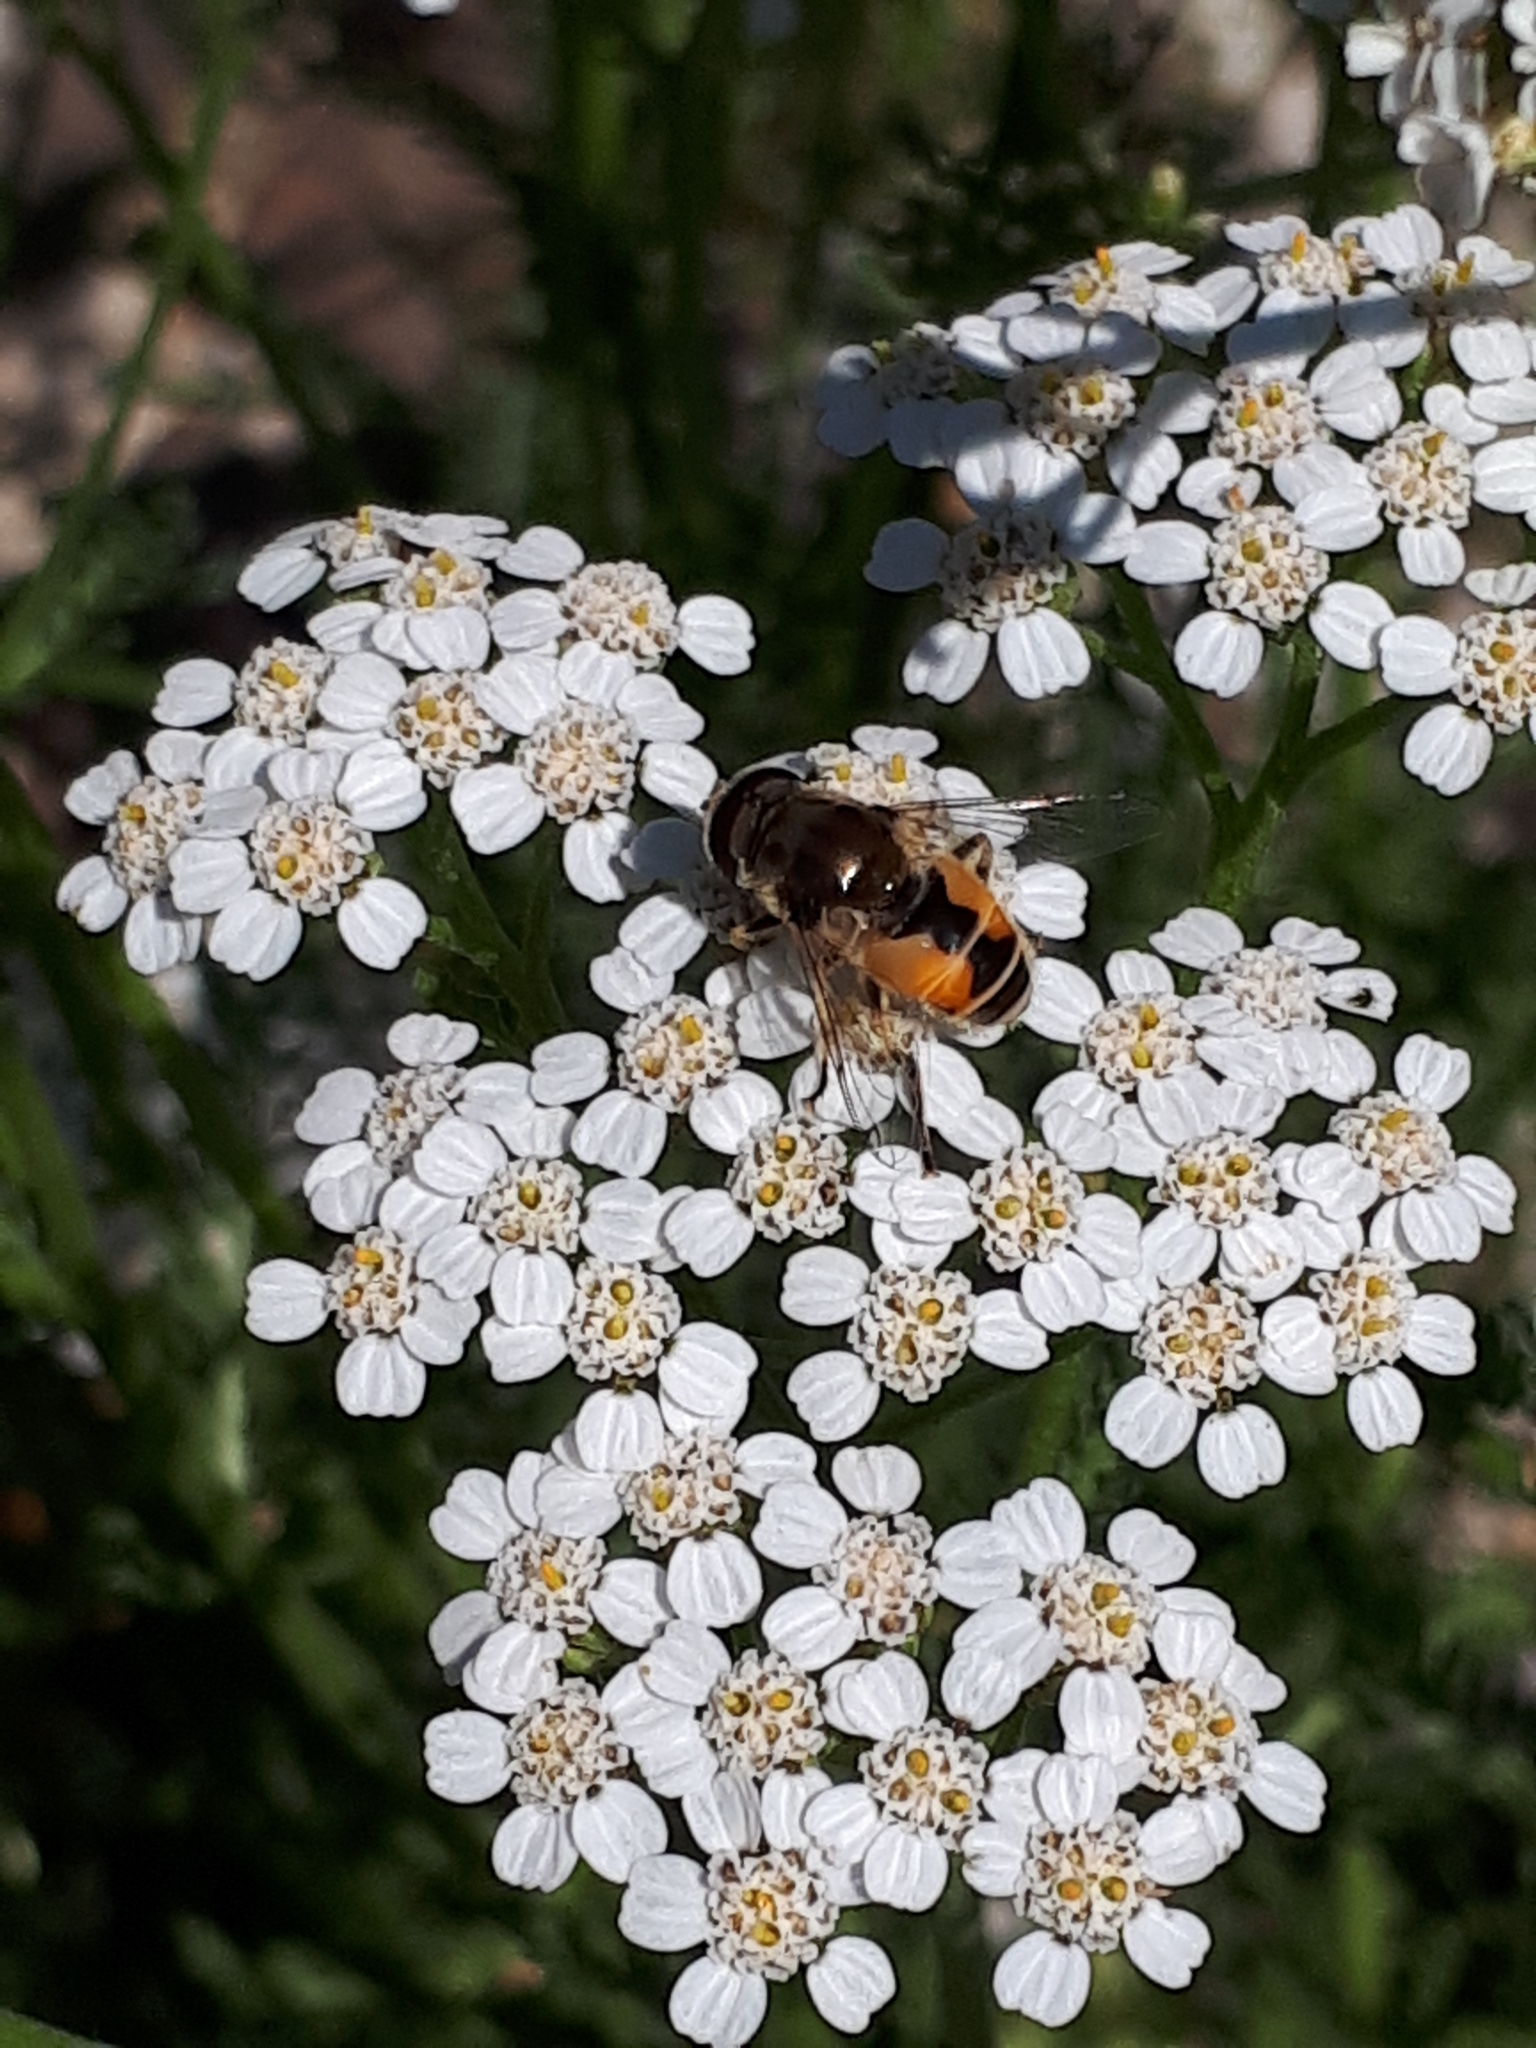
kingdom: Animalia
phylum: Arthropoda
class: Insecta
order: Diptera
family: Syrphidae
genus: Eristalis
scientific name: Eristalis arbustorum
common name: Hover fly
